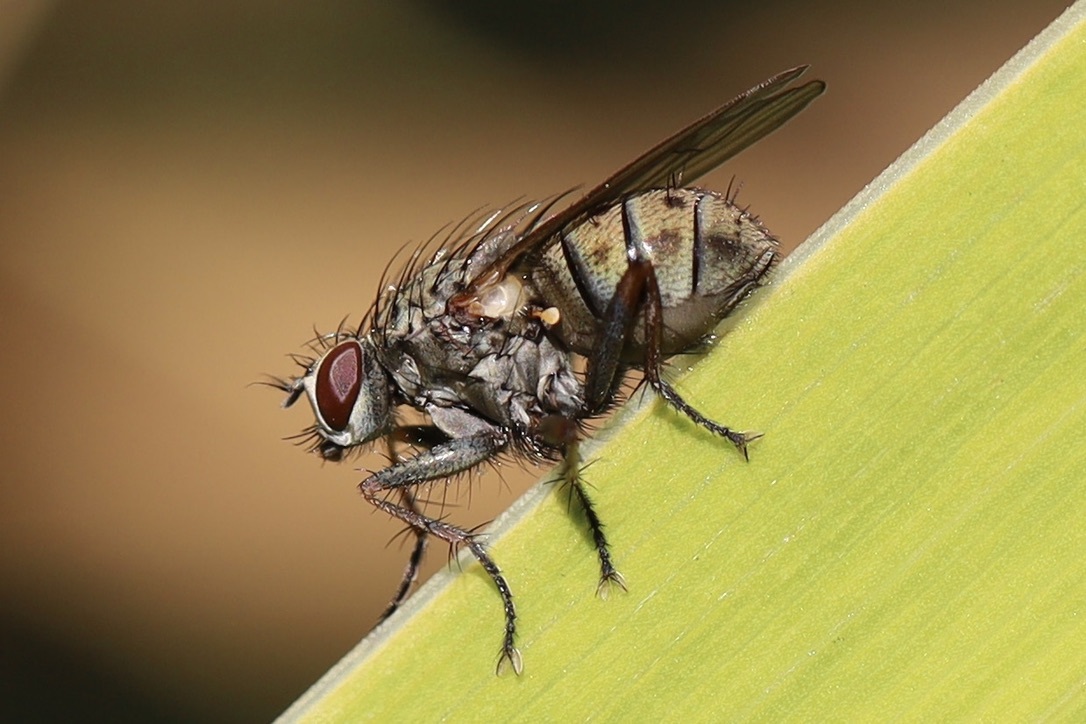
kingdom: Animalia
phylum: Arthropoda
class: Insecta
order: Diptera
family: Muscidae
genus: Coenosia
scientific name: Coenosia tigrina
